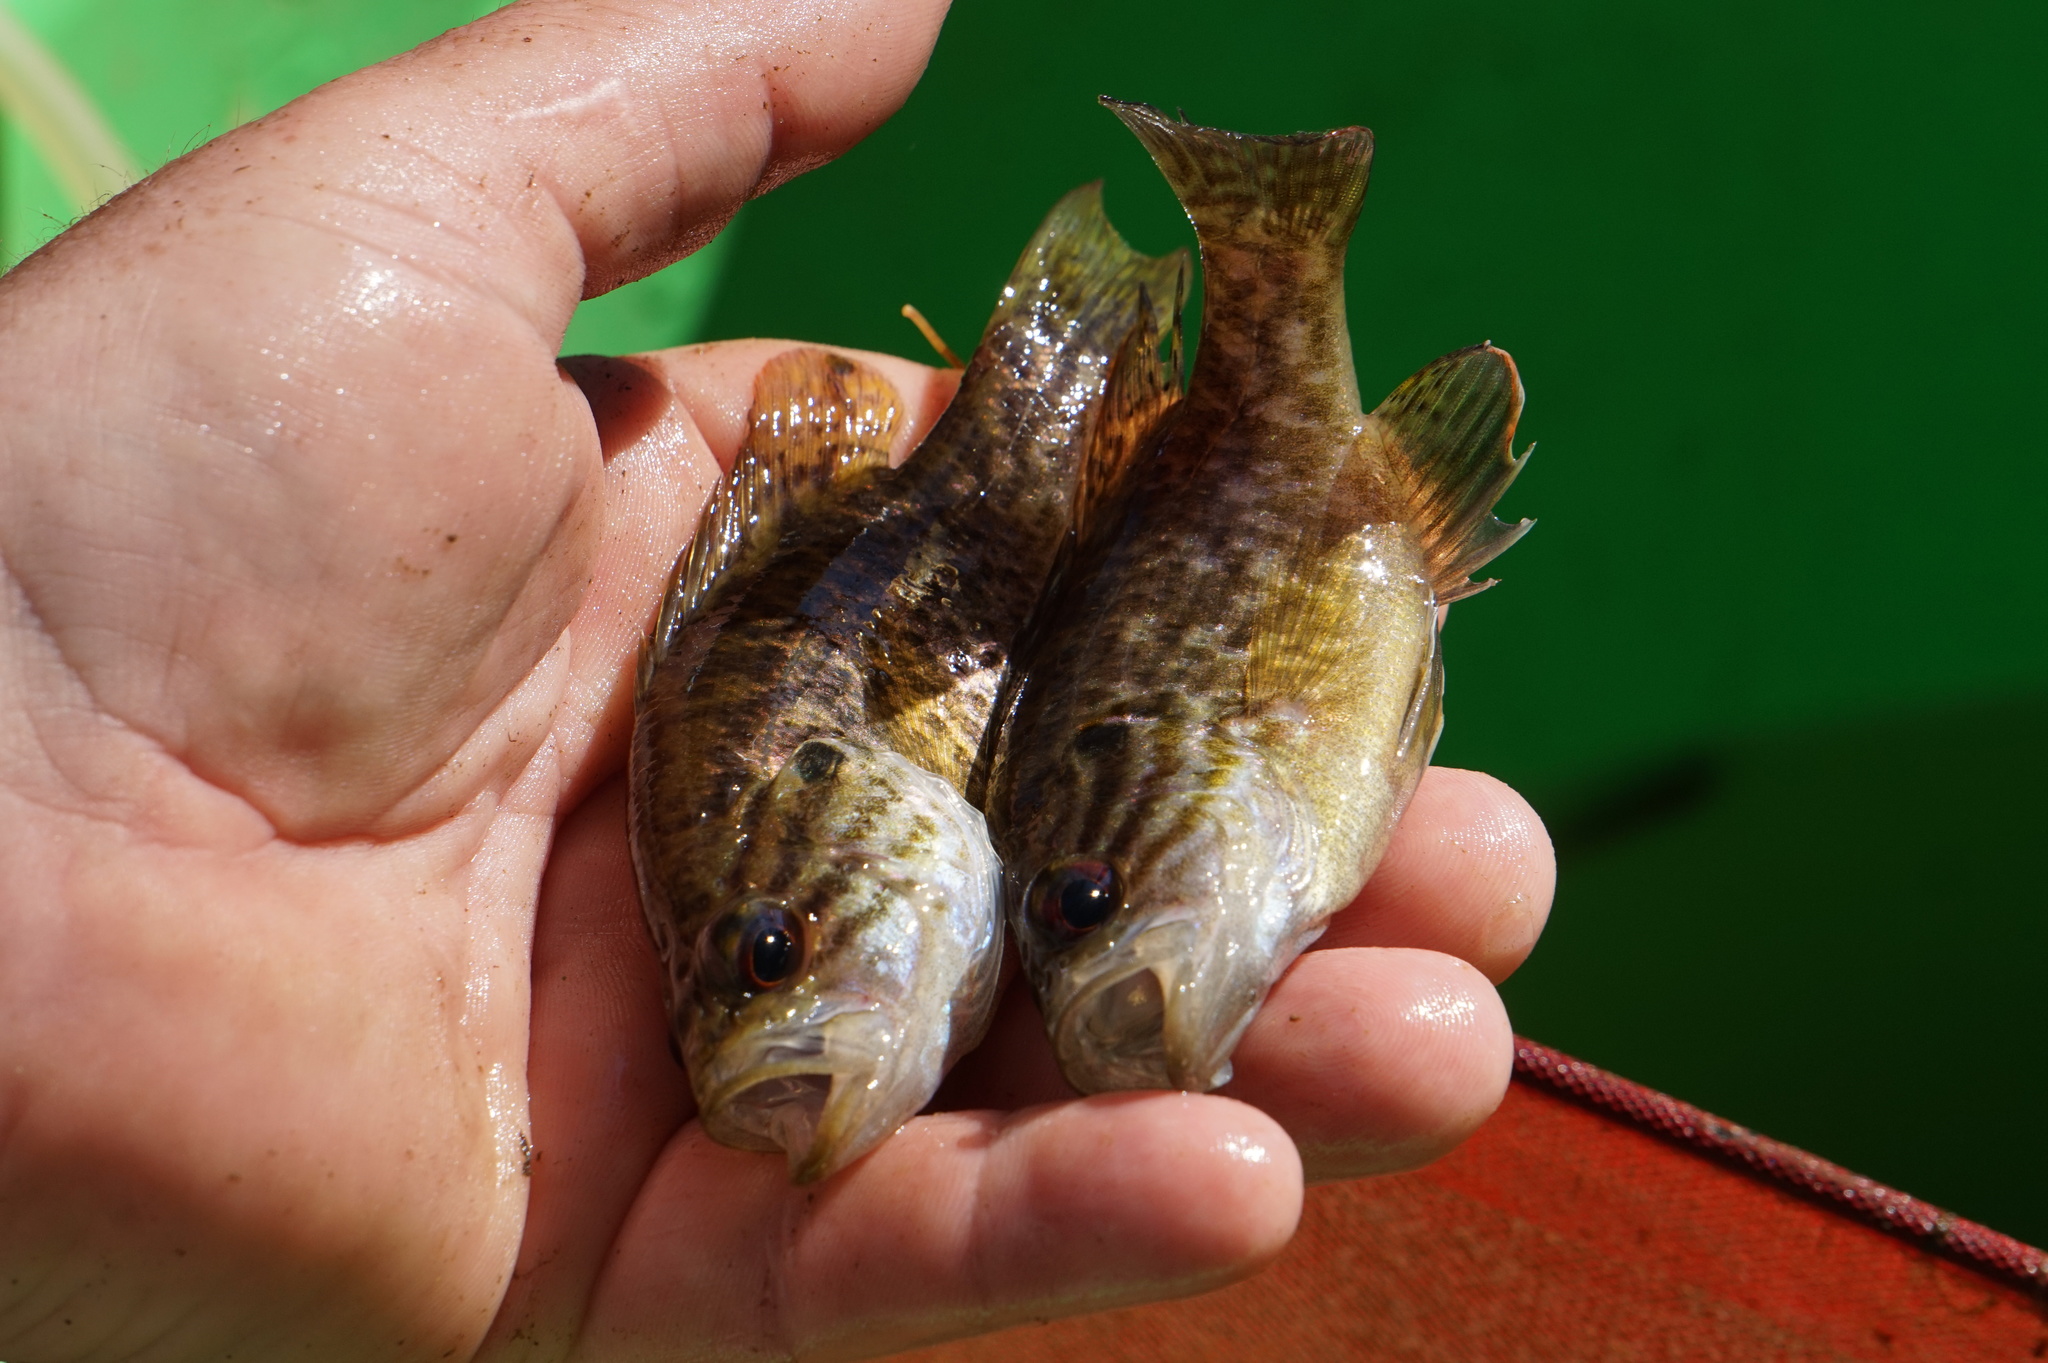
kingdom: Animalia
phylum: Chordata
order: Perciformes
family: Centrarchidae
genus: Lepomis
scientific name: Lepomis gulosus
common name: Warmouth
